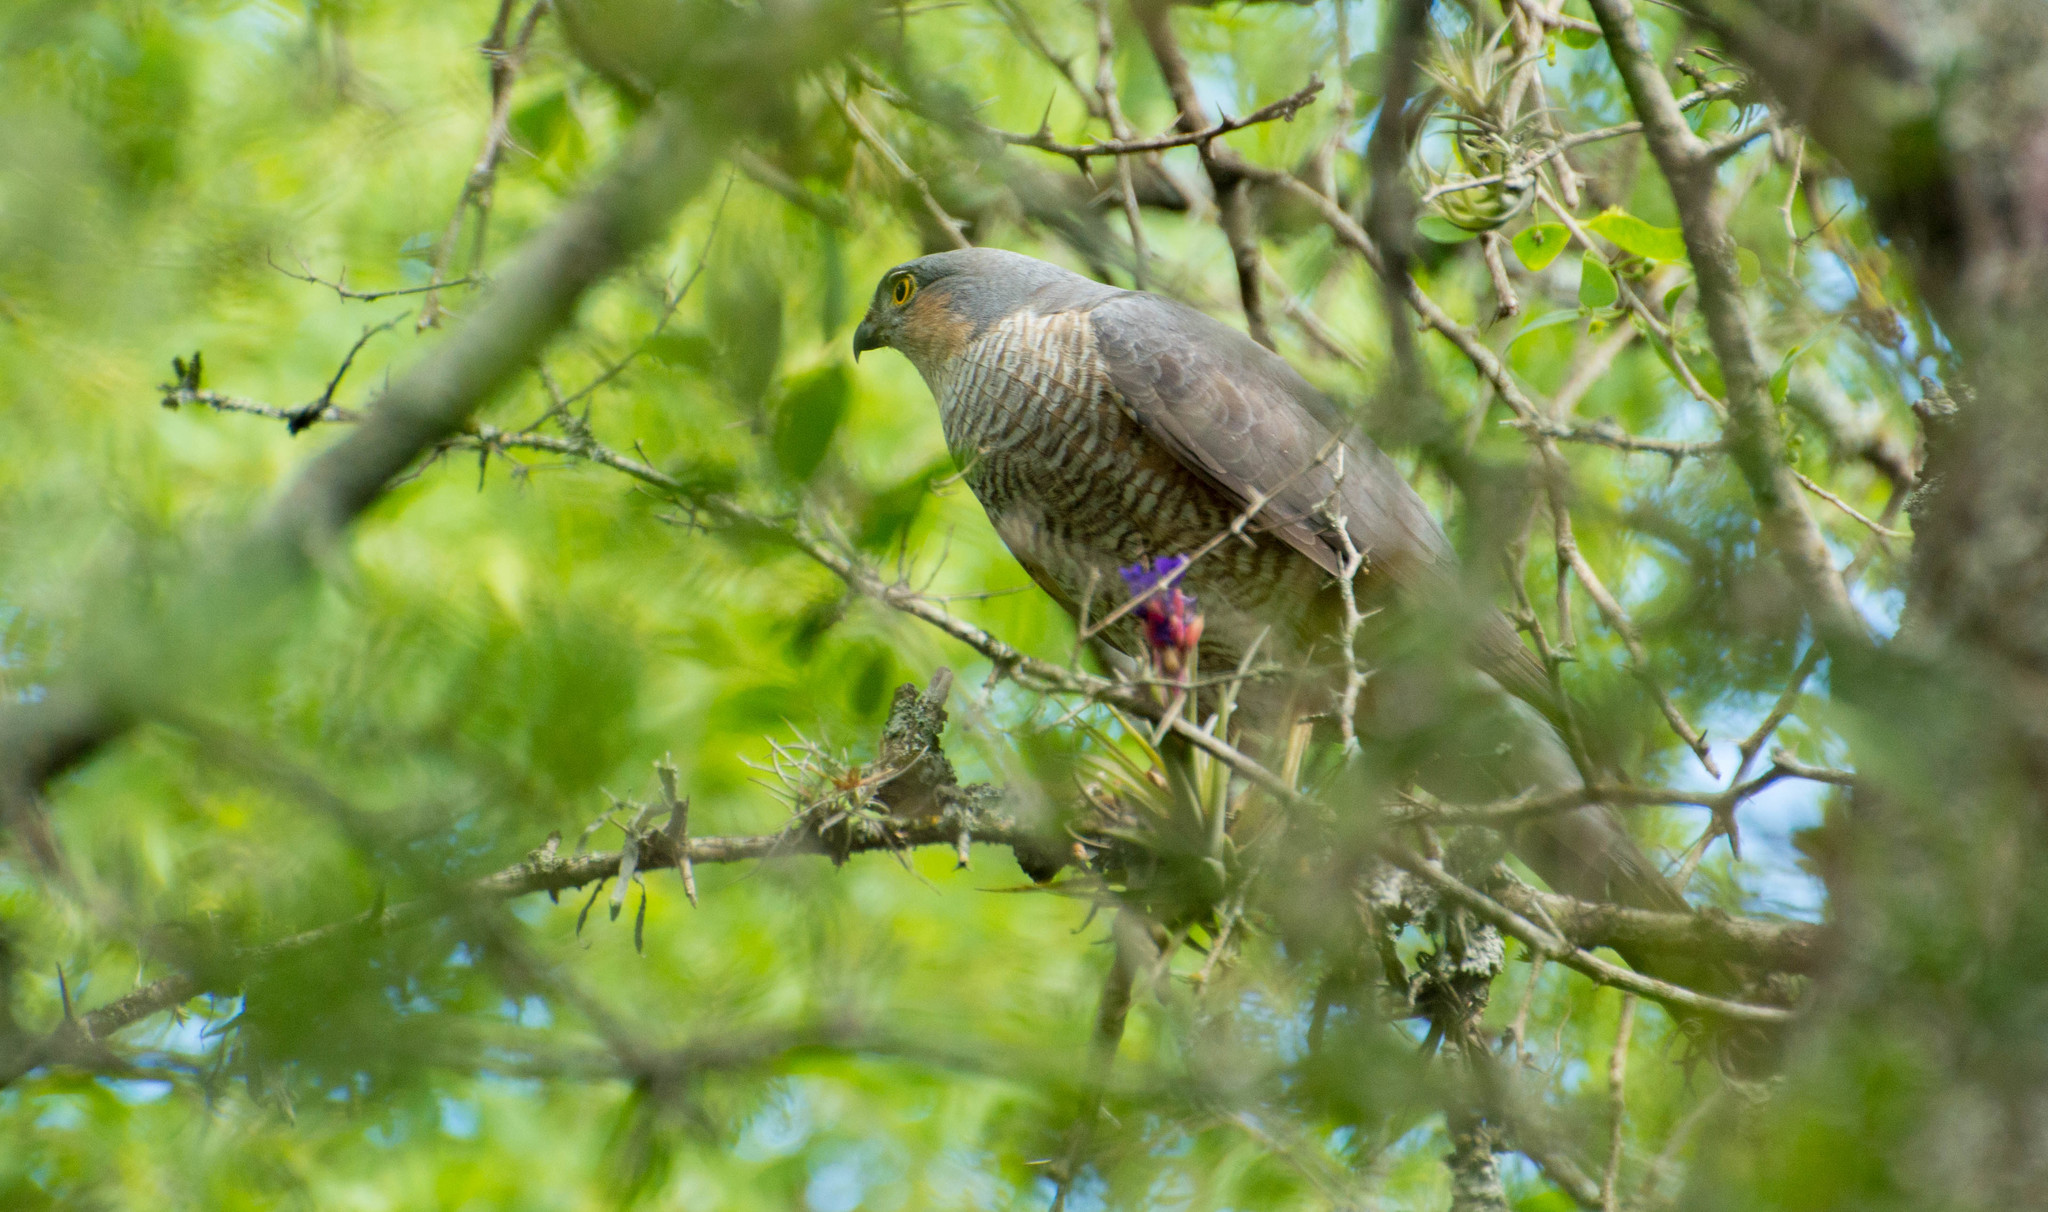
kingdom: Animalia
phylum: Chordata
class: Aves
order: Accipitriformes
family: Accipitridae
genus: Accipiter
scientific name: Accipiter striatus
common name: Sharp-shinned hawk
